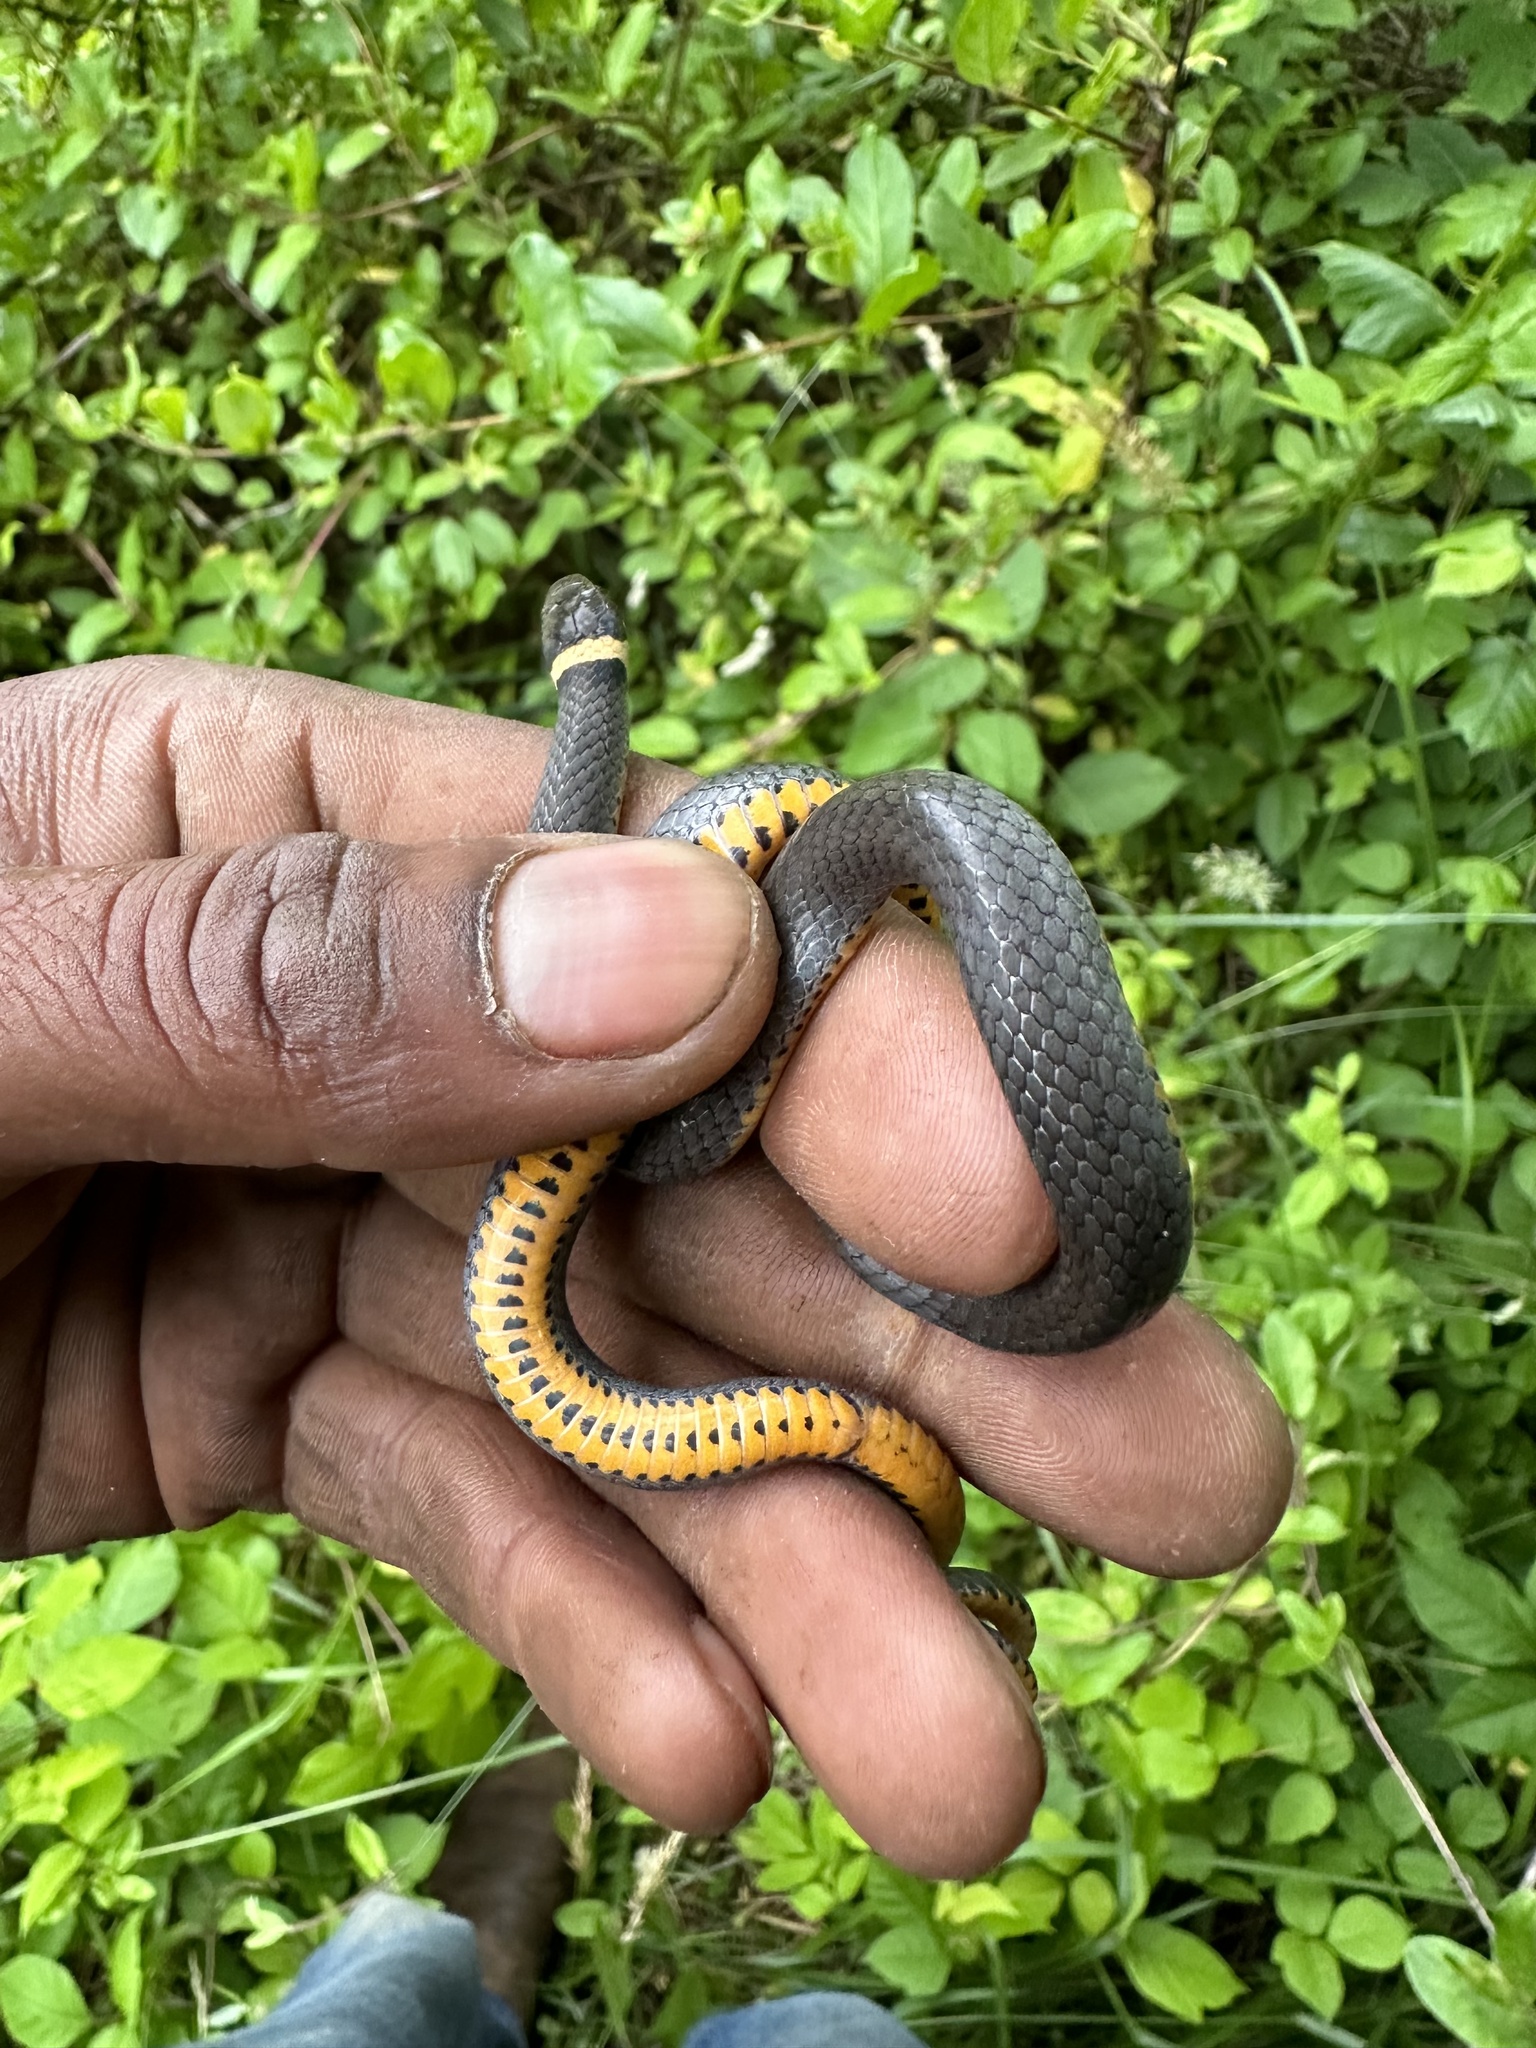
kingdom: Animalia
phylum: Chordata
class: Squamata
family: Colubridae
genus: Diadophis
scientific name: Diadophis punctatus
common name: Ringneck snake
